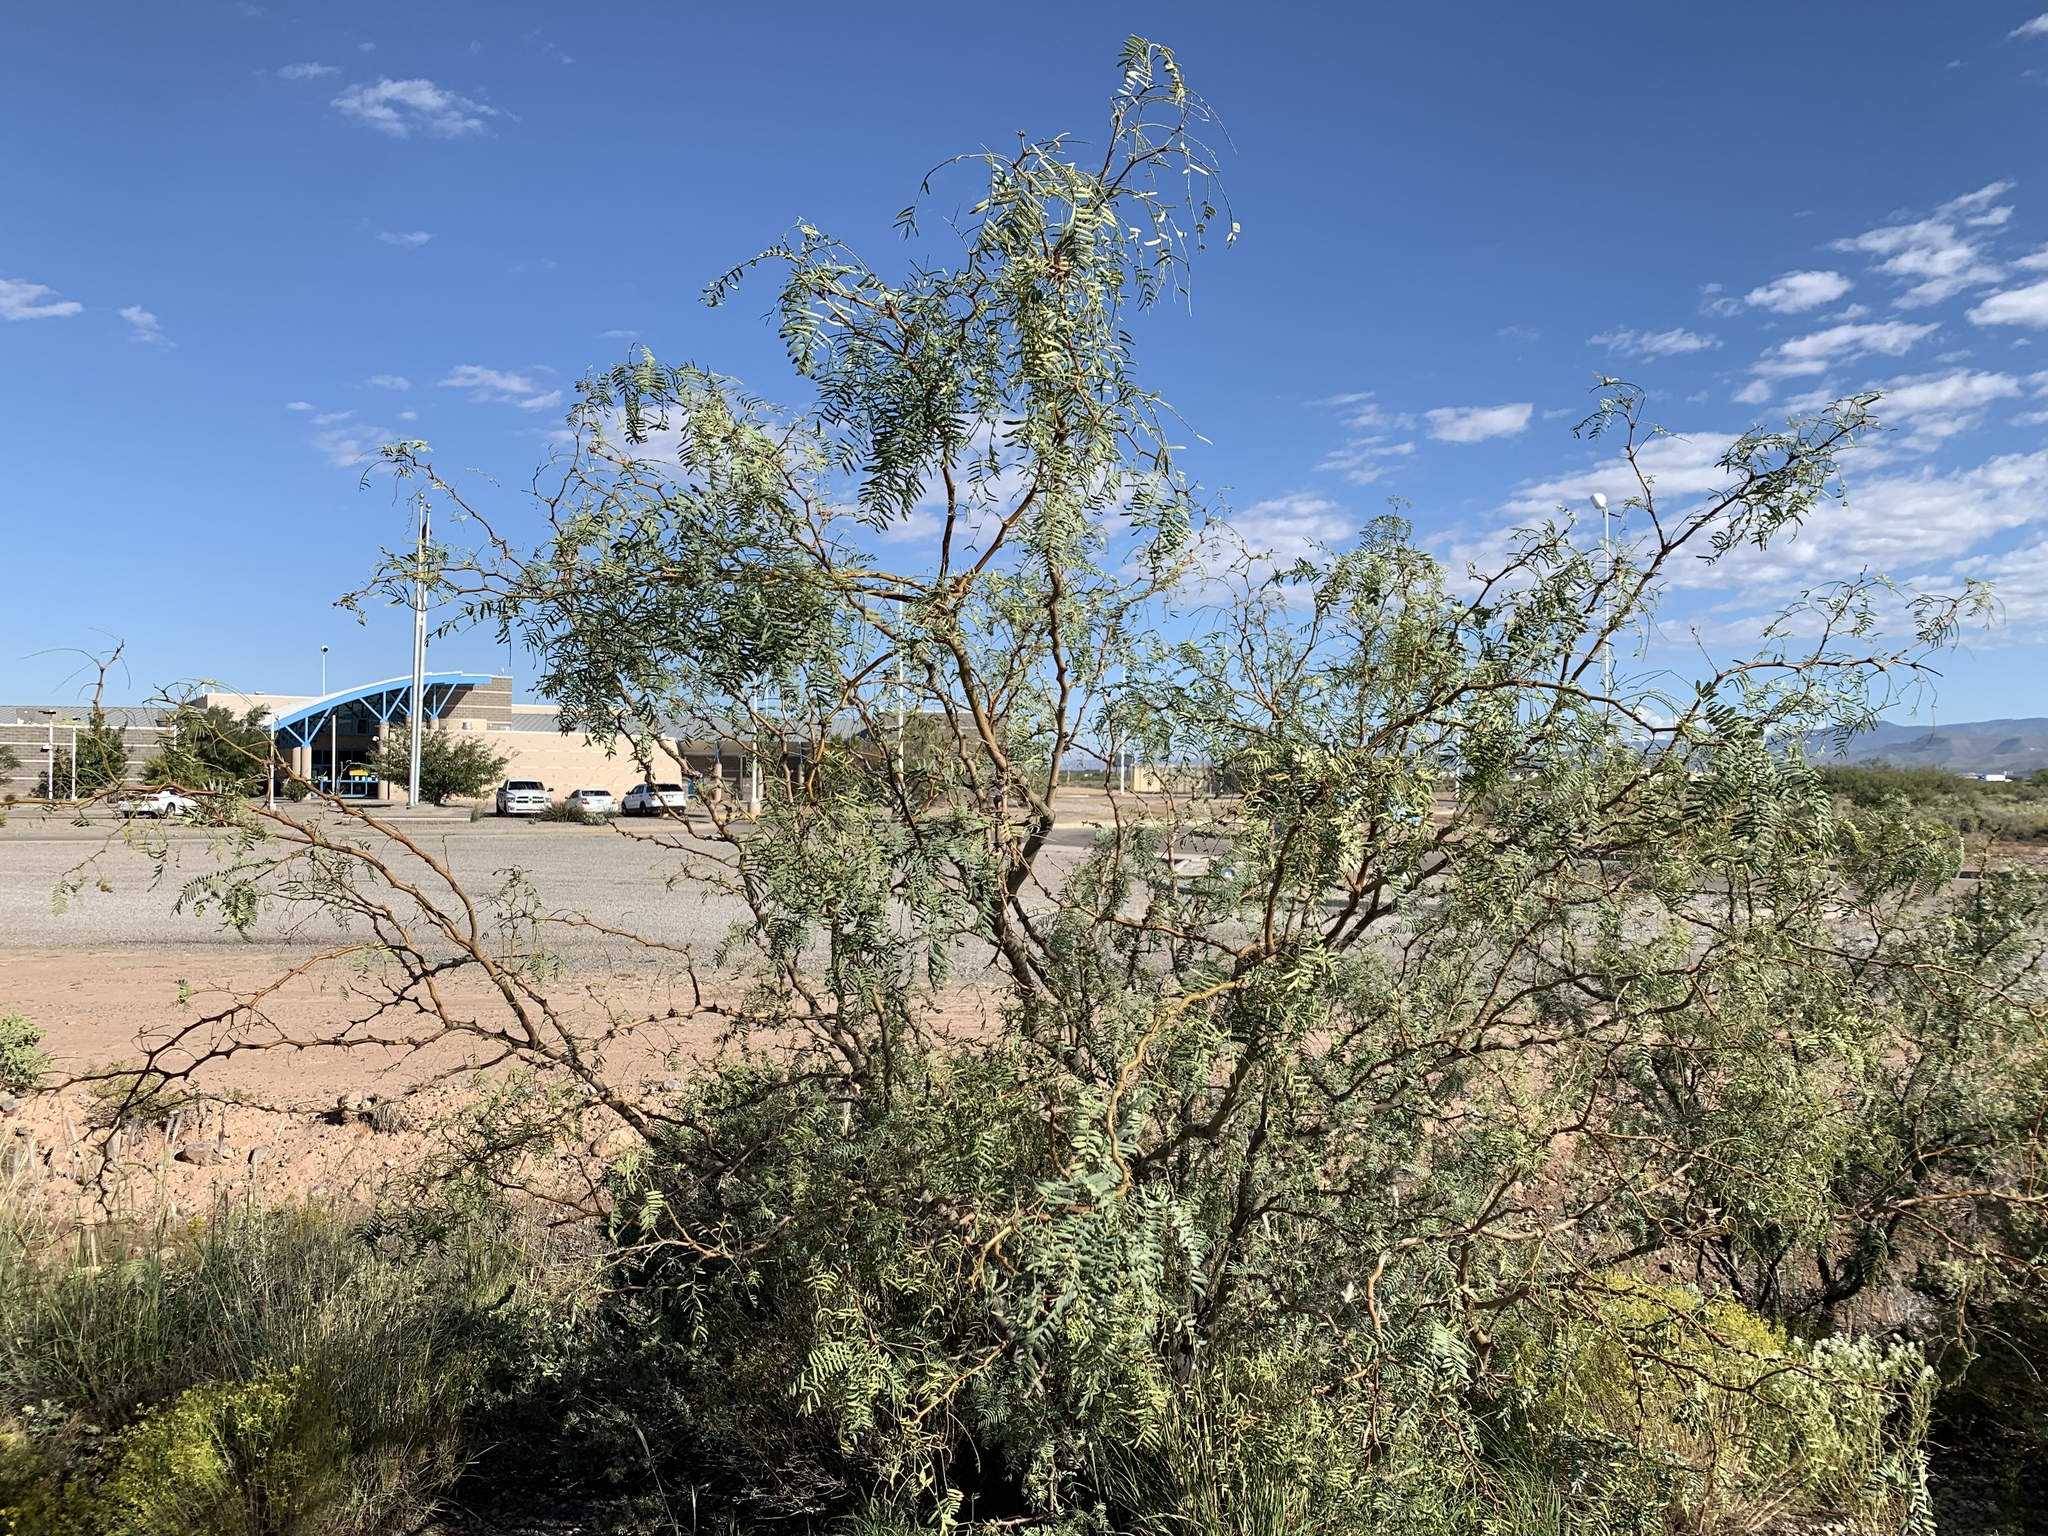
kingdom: Plantae
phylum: Tracheophyta
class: Magnoliopsida
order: Fabales
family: Fabaceae
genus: Prosopis
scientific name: Prosopis glandulosa
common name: Honey mesquite
